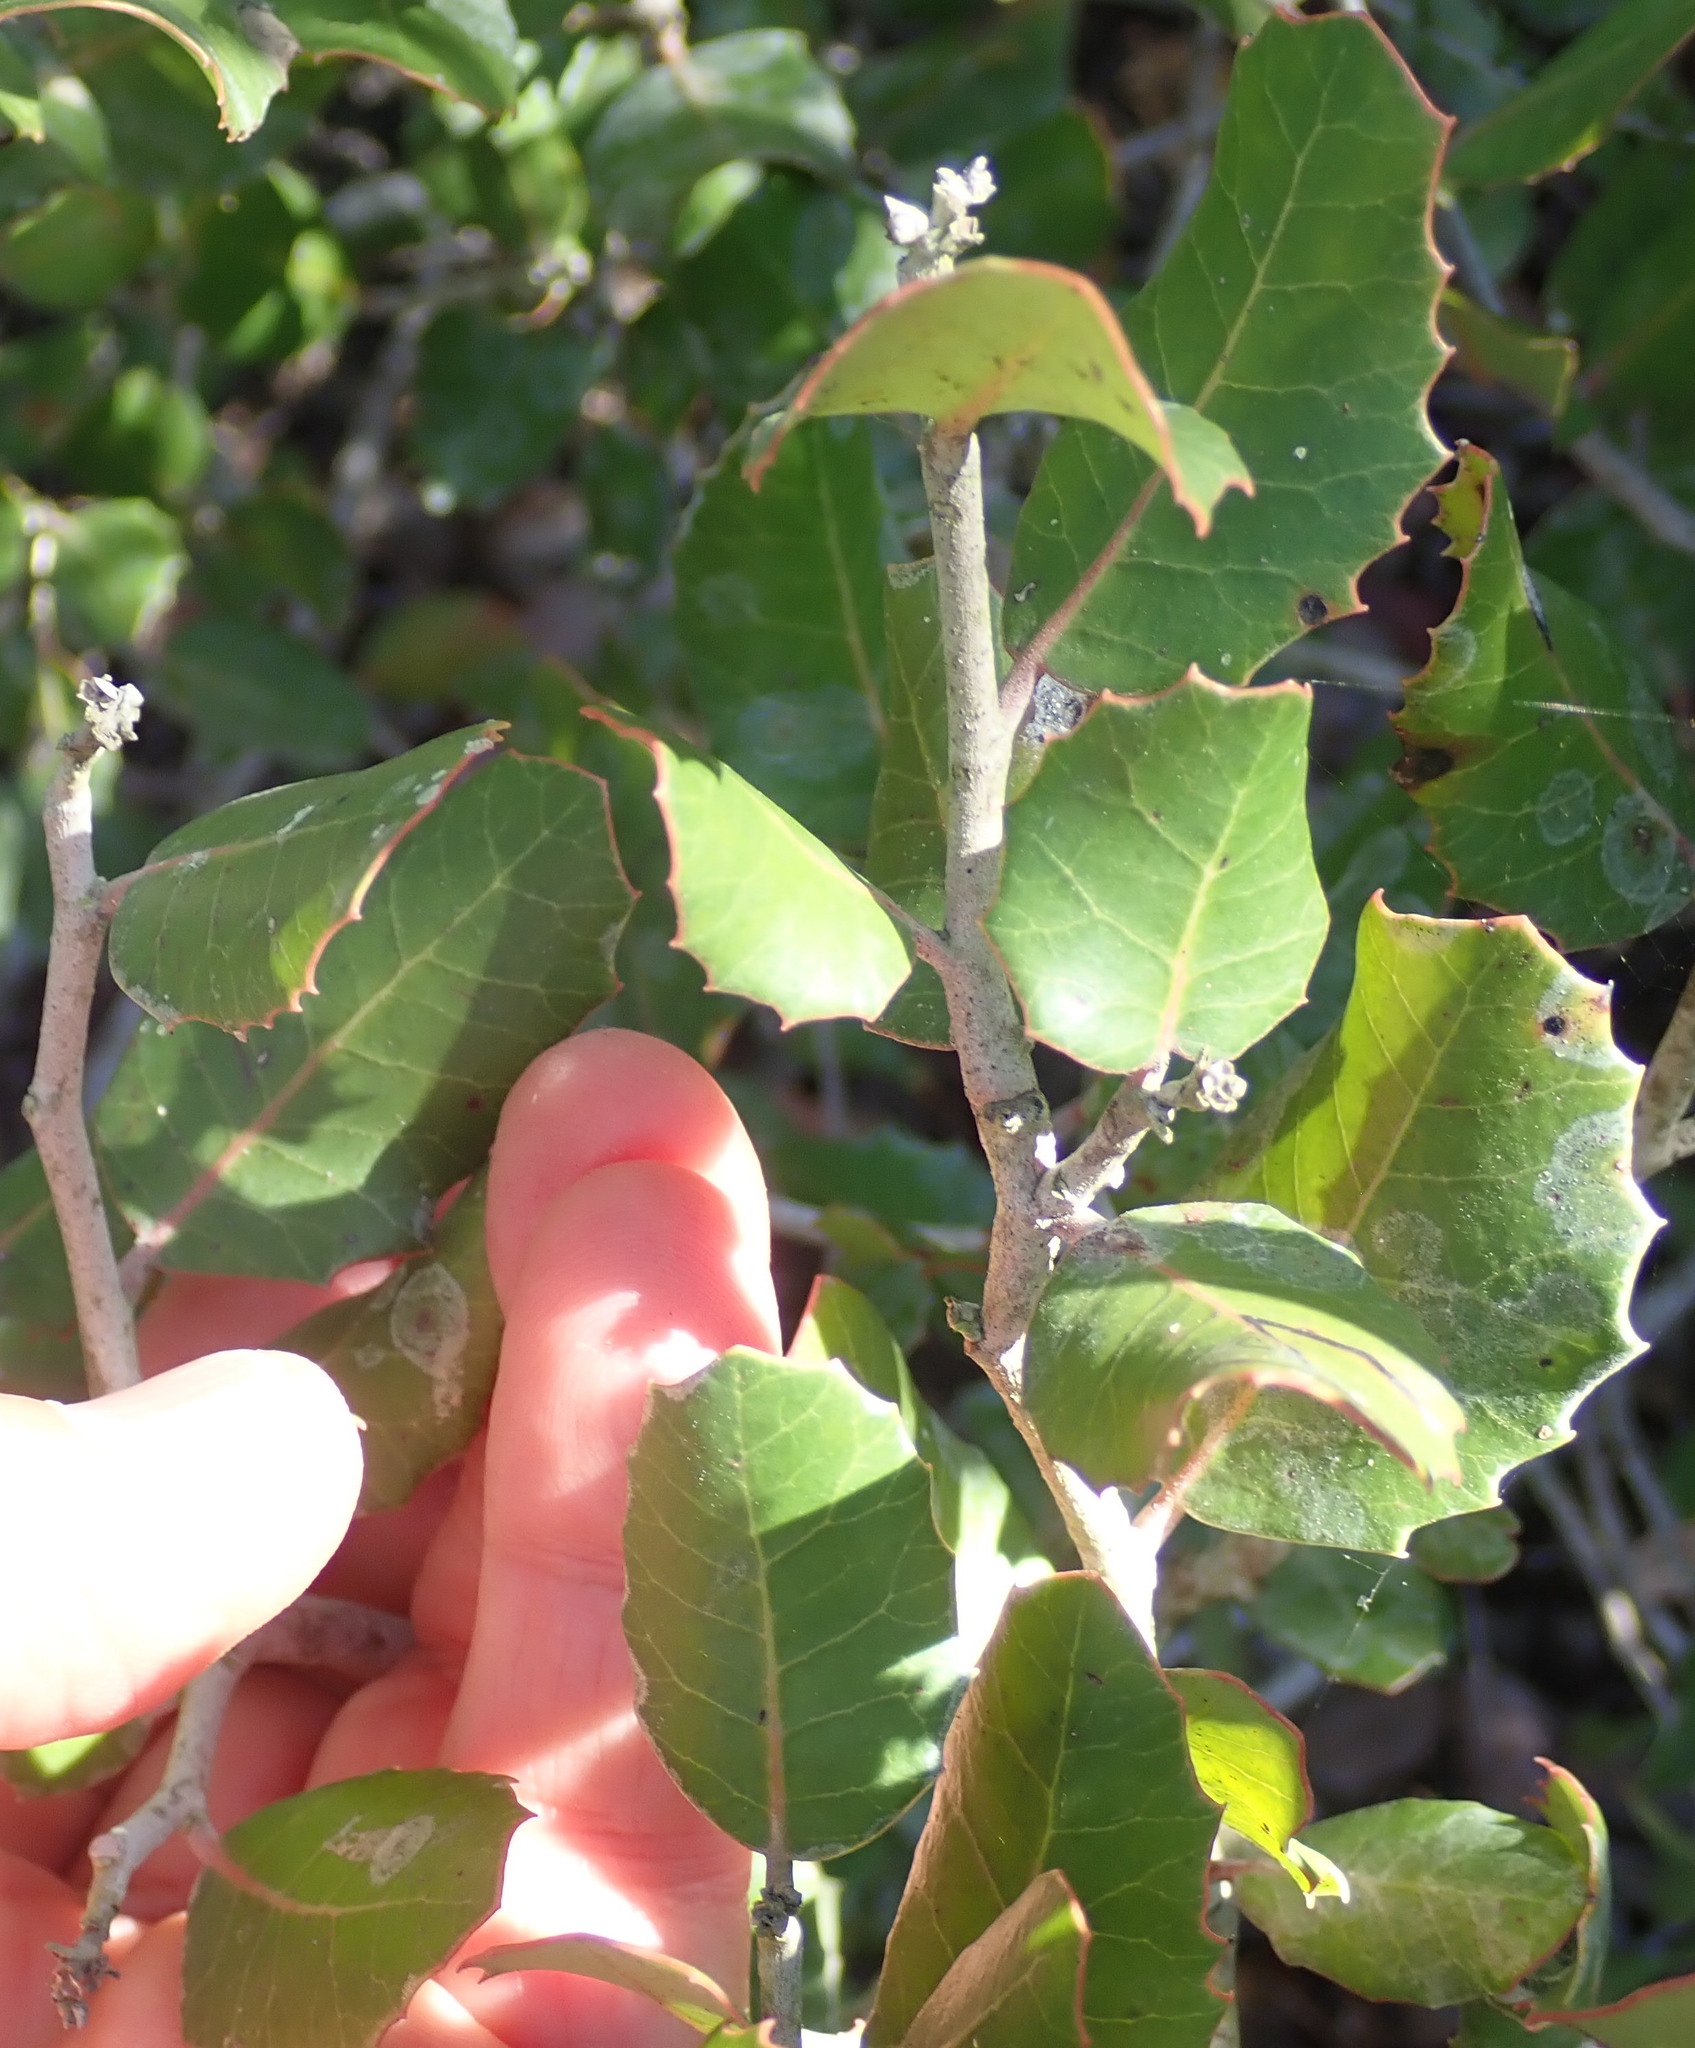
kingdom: Plantae
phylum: Tracheophyta
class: Magnoliopsida
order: Sapindales
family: Anacardiaceae
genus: Rhus
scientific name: Rhus integrifolia
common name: Lemonade sumac
